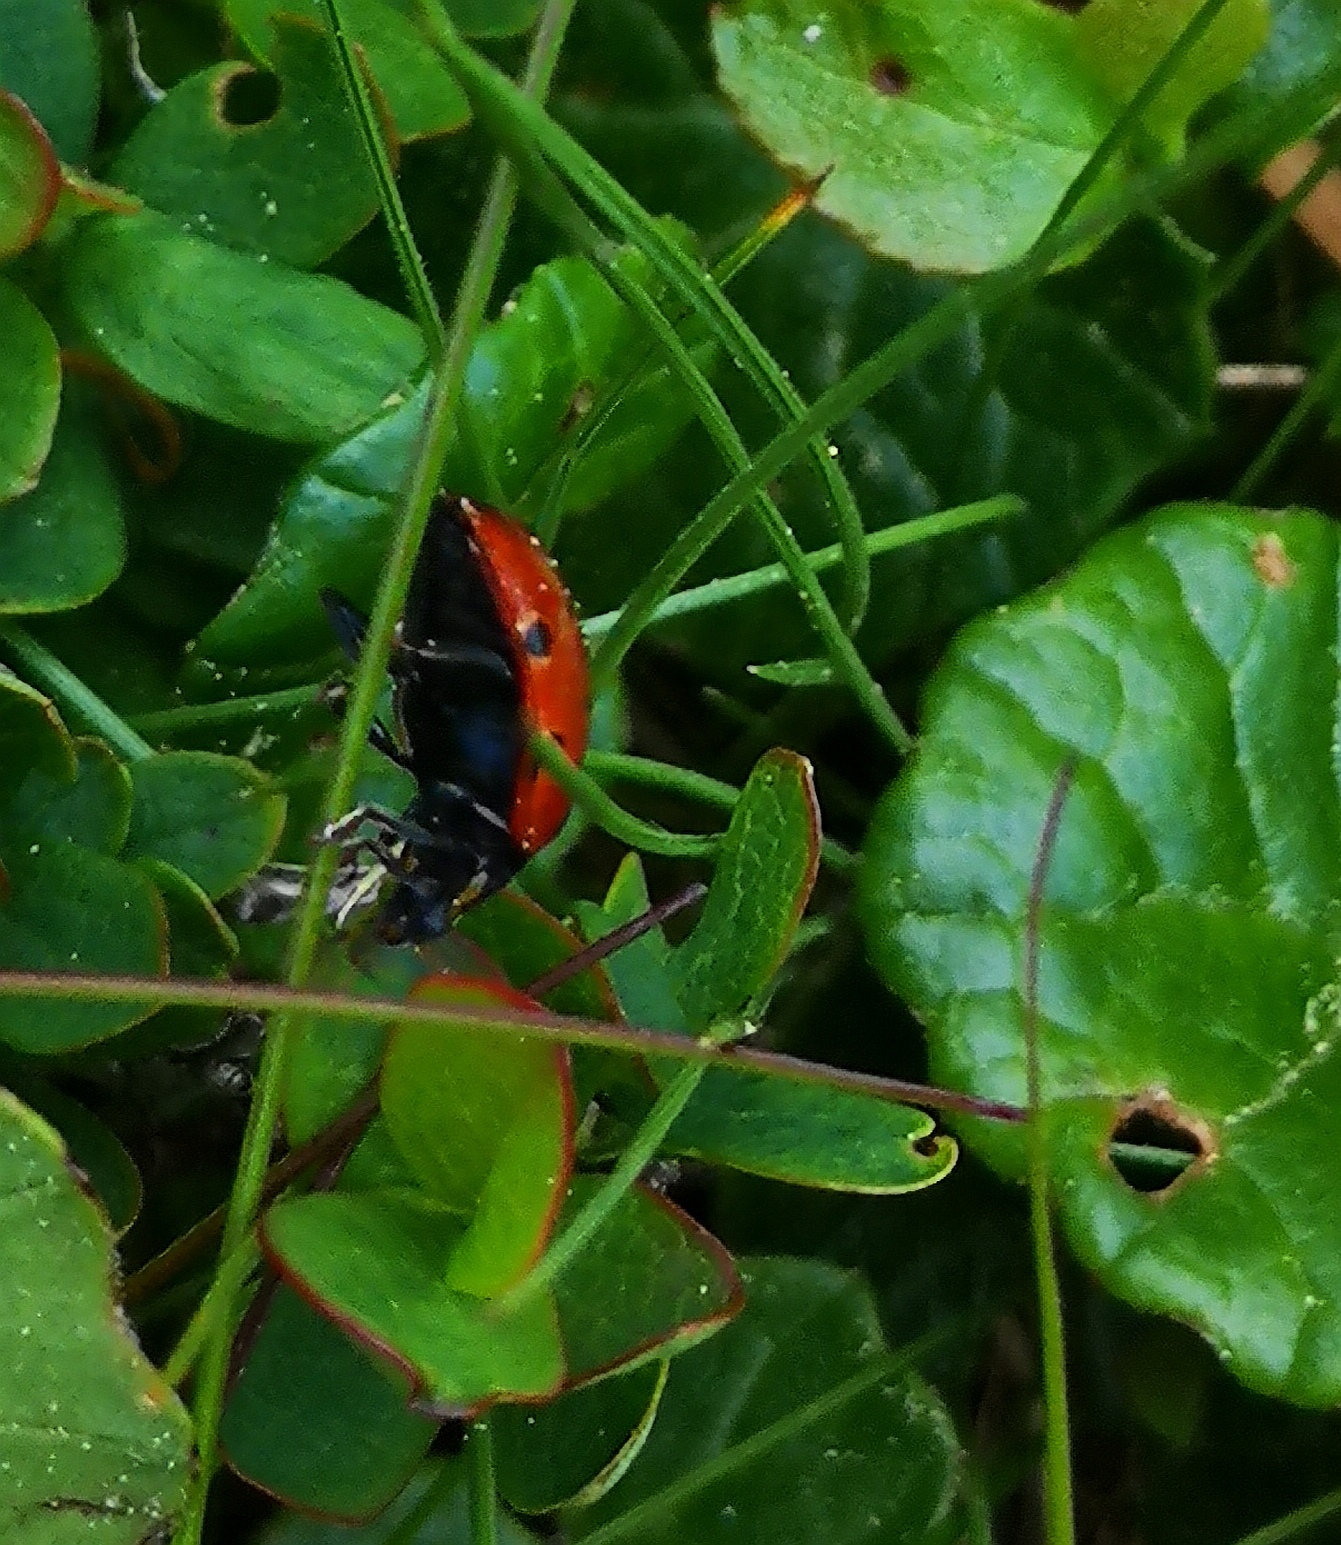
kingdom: Animalia
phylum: Arthropoda
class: Insecta
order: Coleoptera
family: Coccinellidae
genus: Anatis
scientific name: Anatis ocellata
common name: Eyed ladybird
